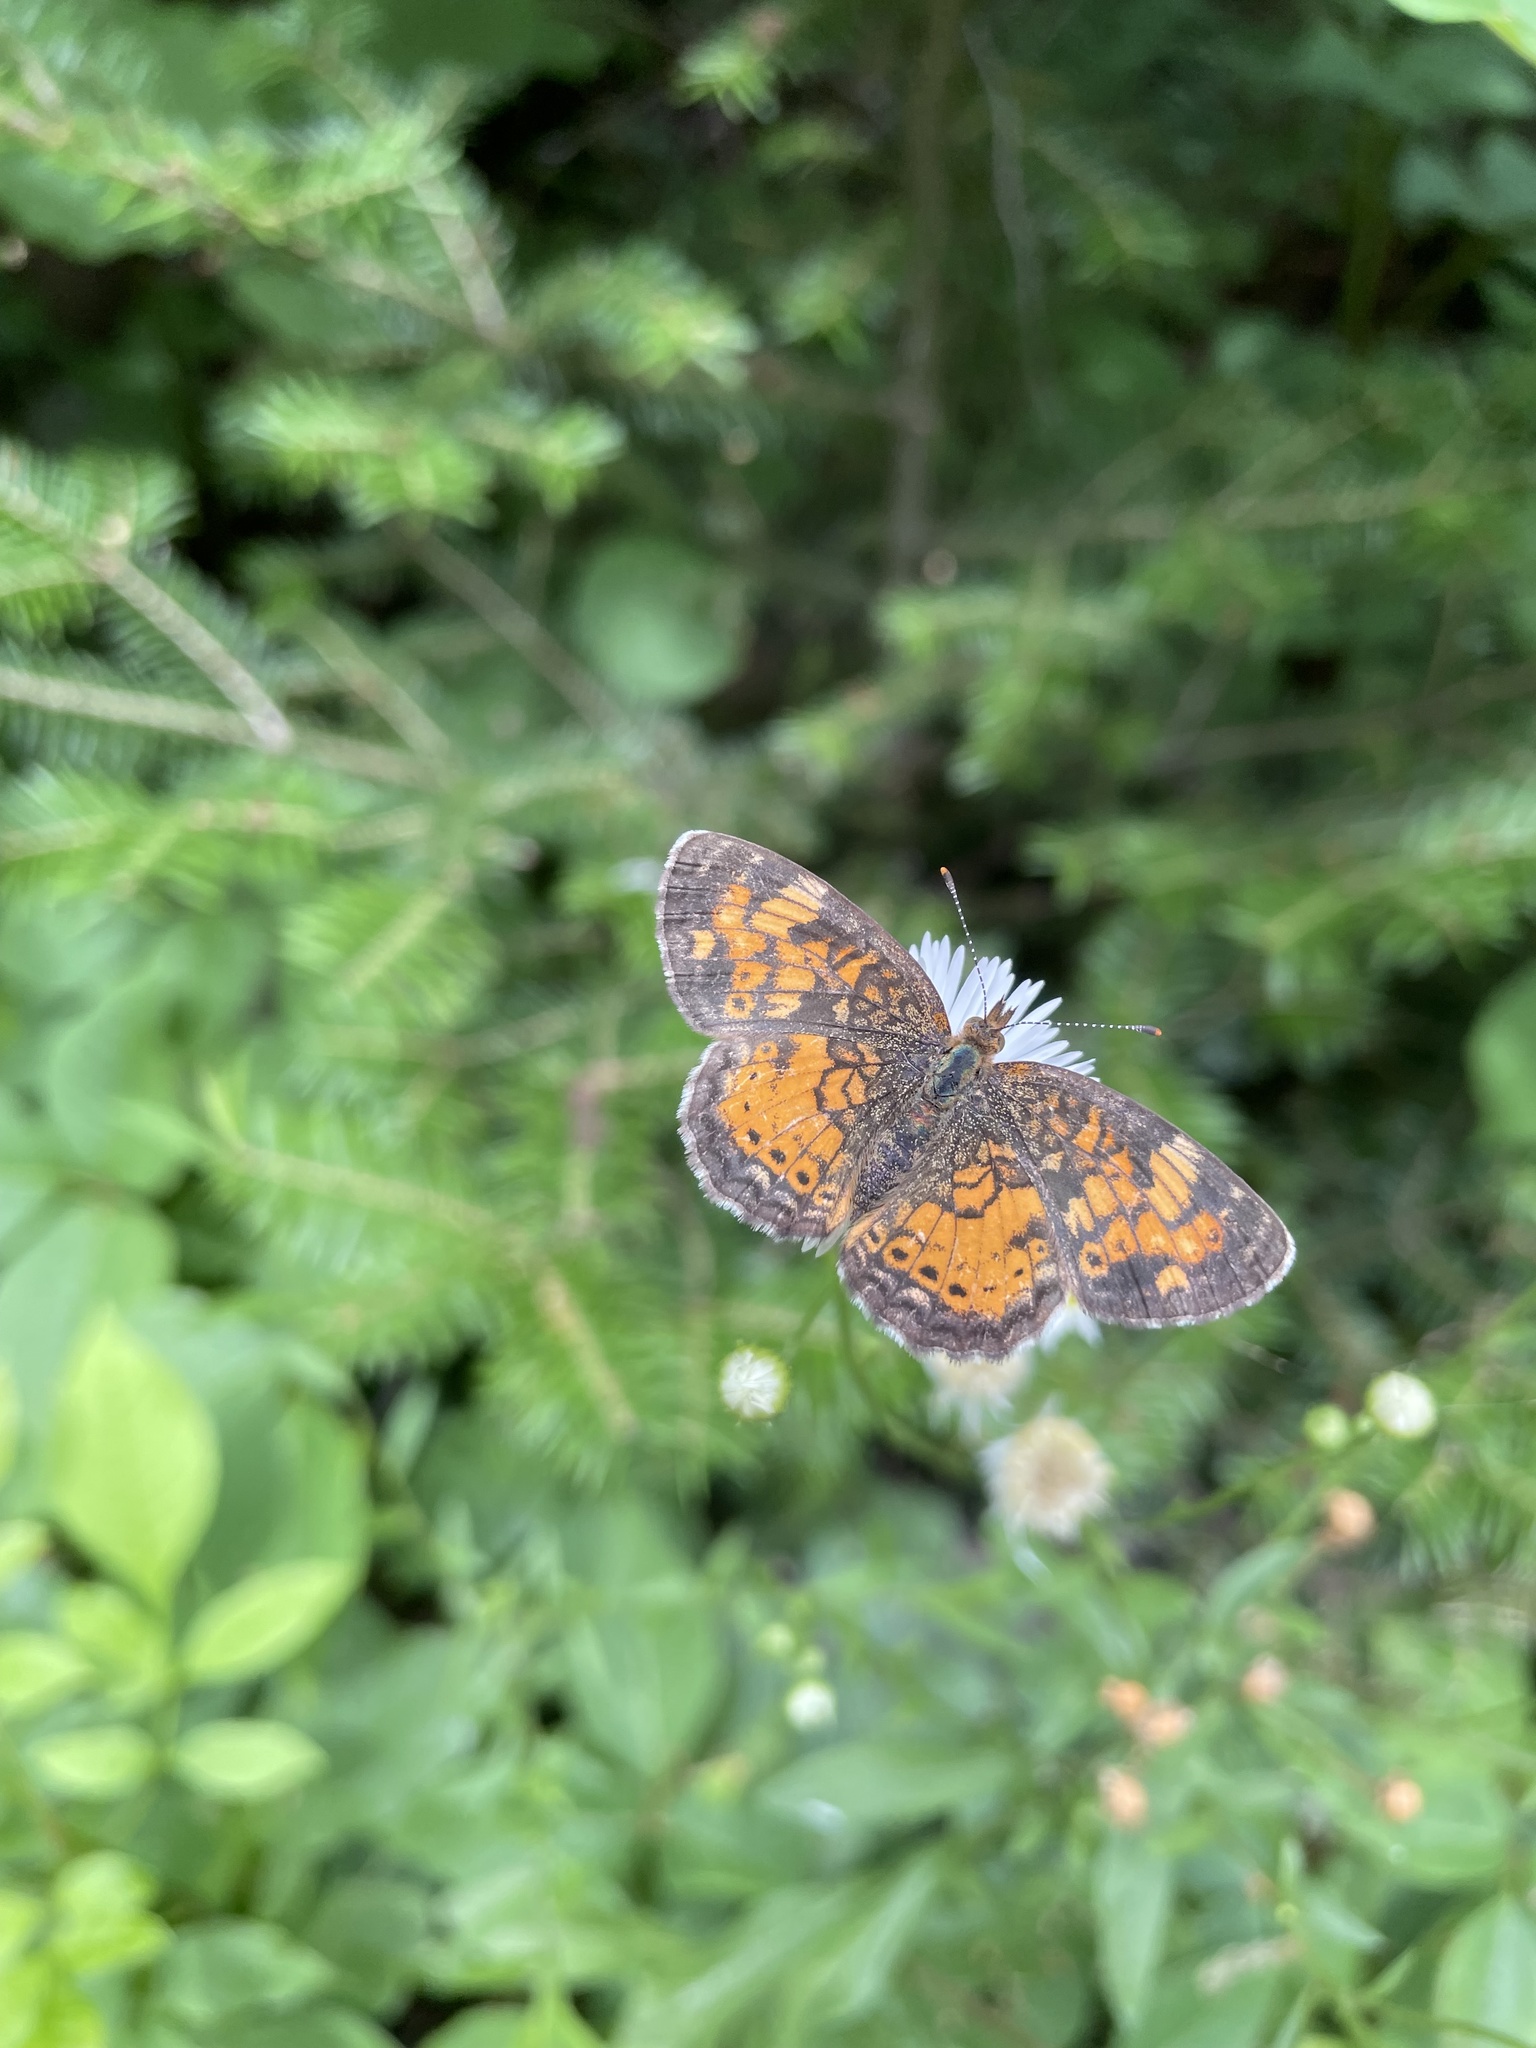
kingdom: Animalia
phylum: Arthropoda
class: Insecta
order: Lepidoptera
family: Nymphalidae
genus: Phyciodes
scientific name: Phyciodes tharos
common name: Pearl crescent
